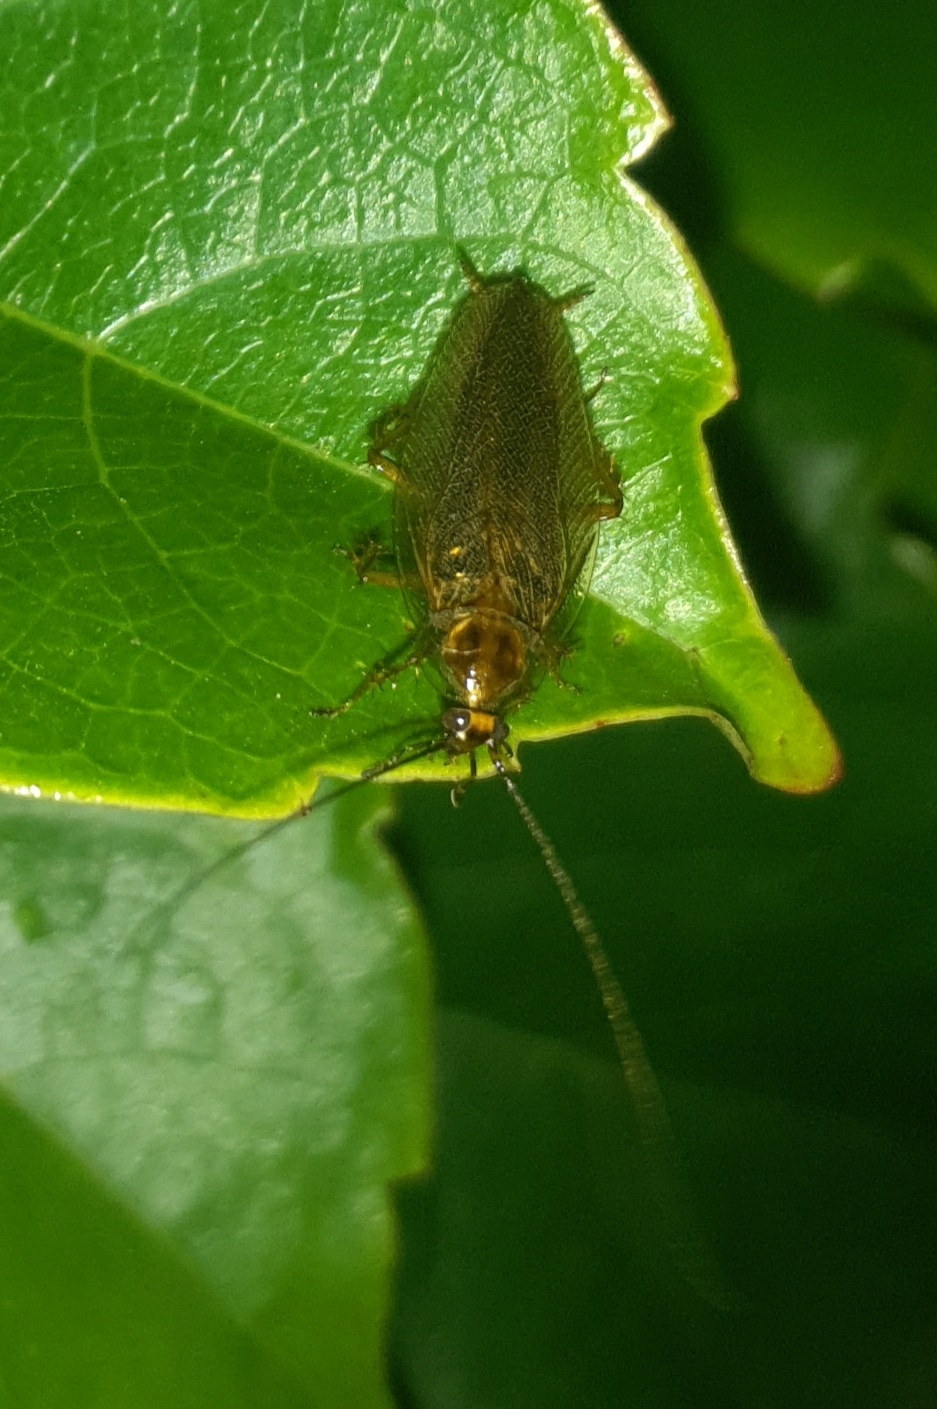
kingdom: Animalia
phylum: Arthropoda
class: Insecta
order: Blattodea
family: Ectobiidae
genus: Ectobius
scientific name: Ectobius vittiventris
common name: Garden cockroach
